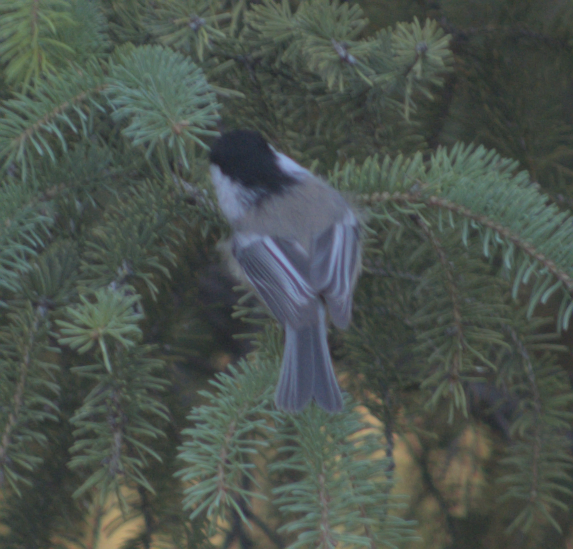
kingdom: Animalia
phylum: Chordata
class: Aves
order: Passeriformes
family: Paridae
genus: Poecile
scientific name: Poecile atricapillus
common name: Black-capped chickadee
